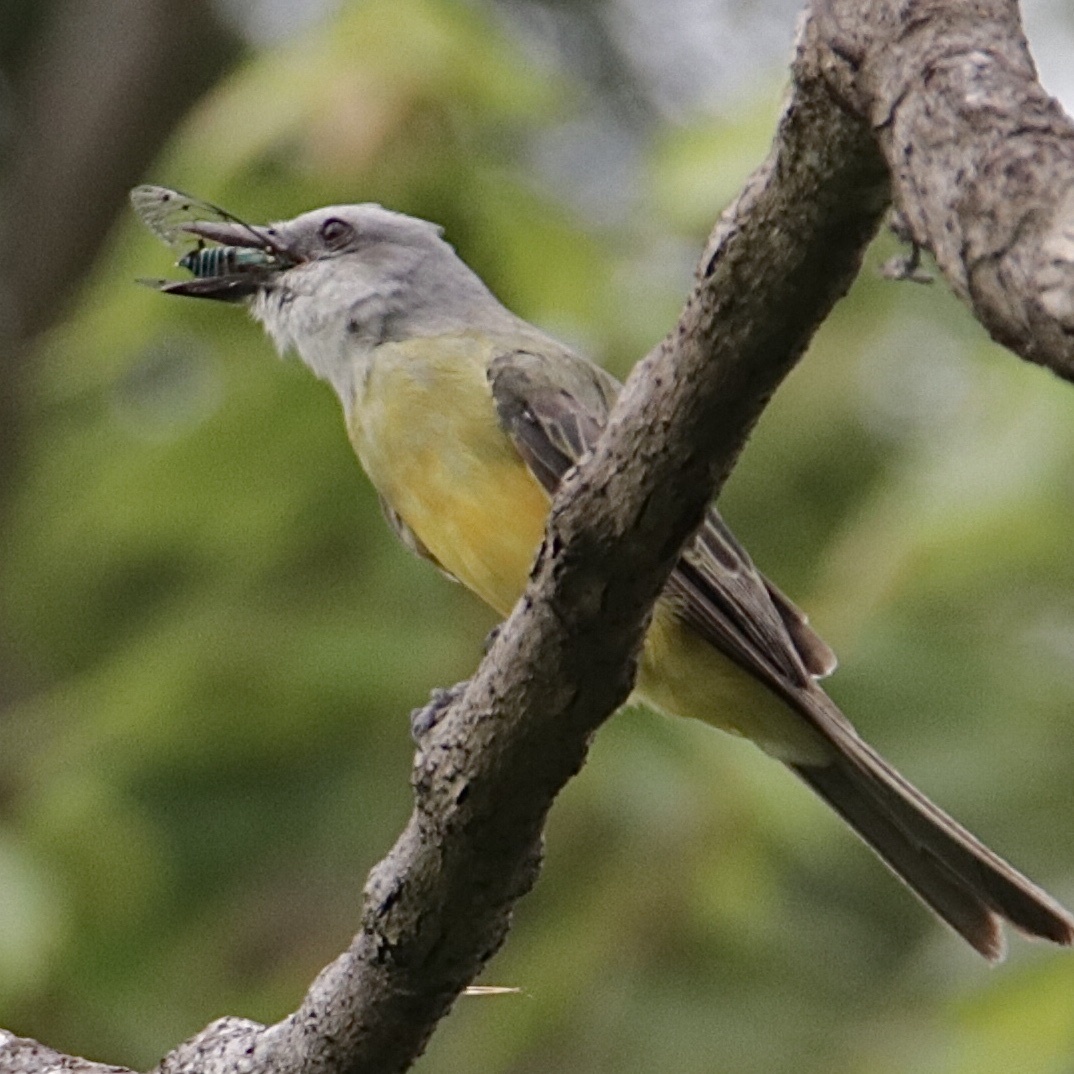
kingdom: Animalia
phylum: Chordata
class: Aves
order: Passeriformes
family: Tyrannidae
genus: Tyrannus
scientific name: Tyrannus melancholicus
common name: Tropical kingbird
